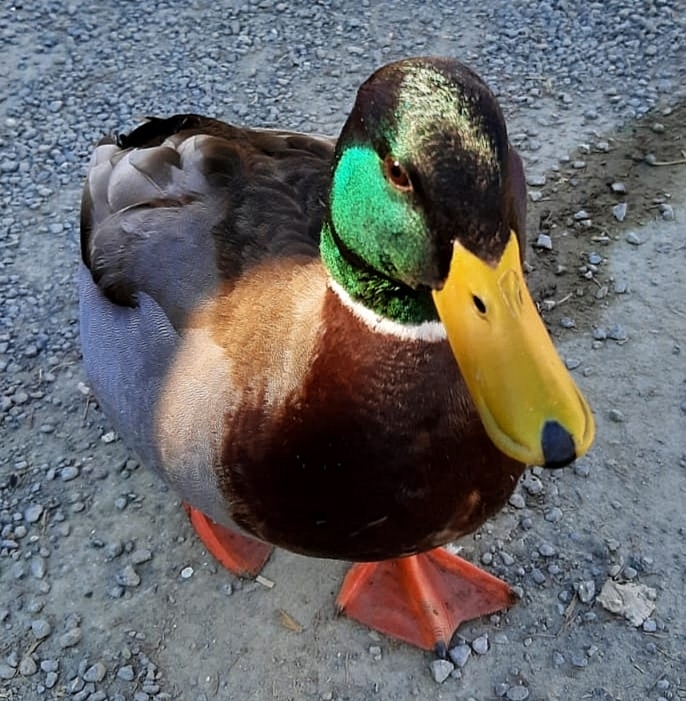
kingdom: Animalia
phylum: Chordata
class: Aves
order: Anseriformes
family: Anatidae
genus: Anas
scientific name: Anas platyrhynchos
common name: Mallard
